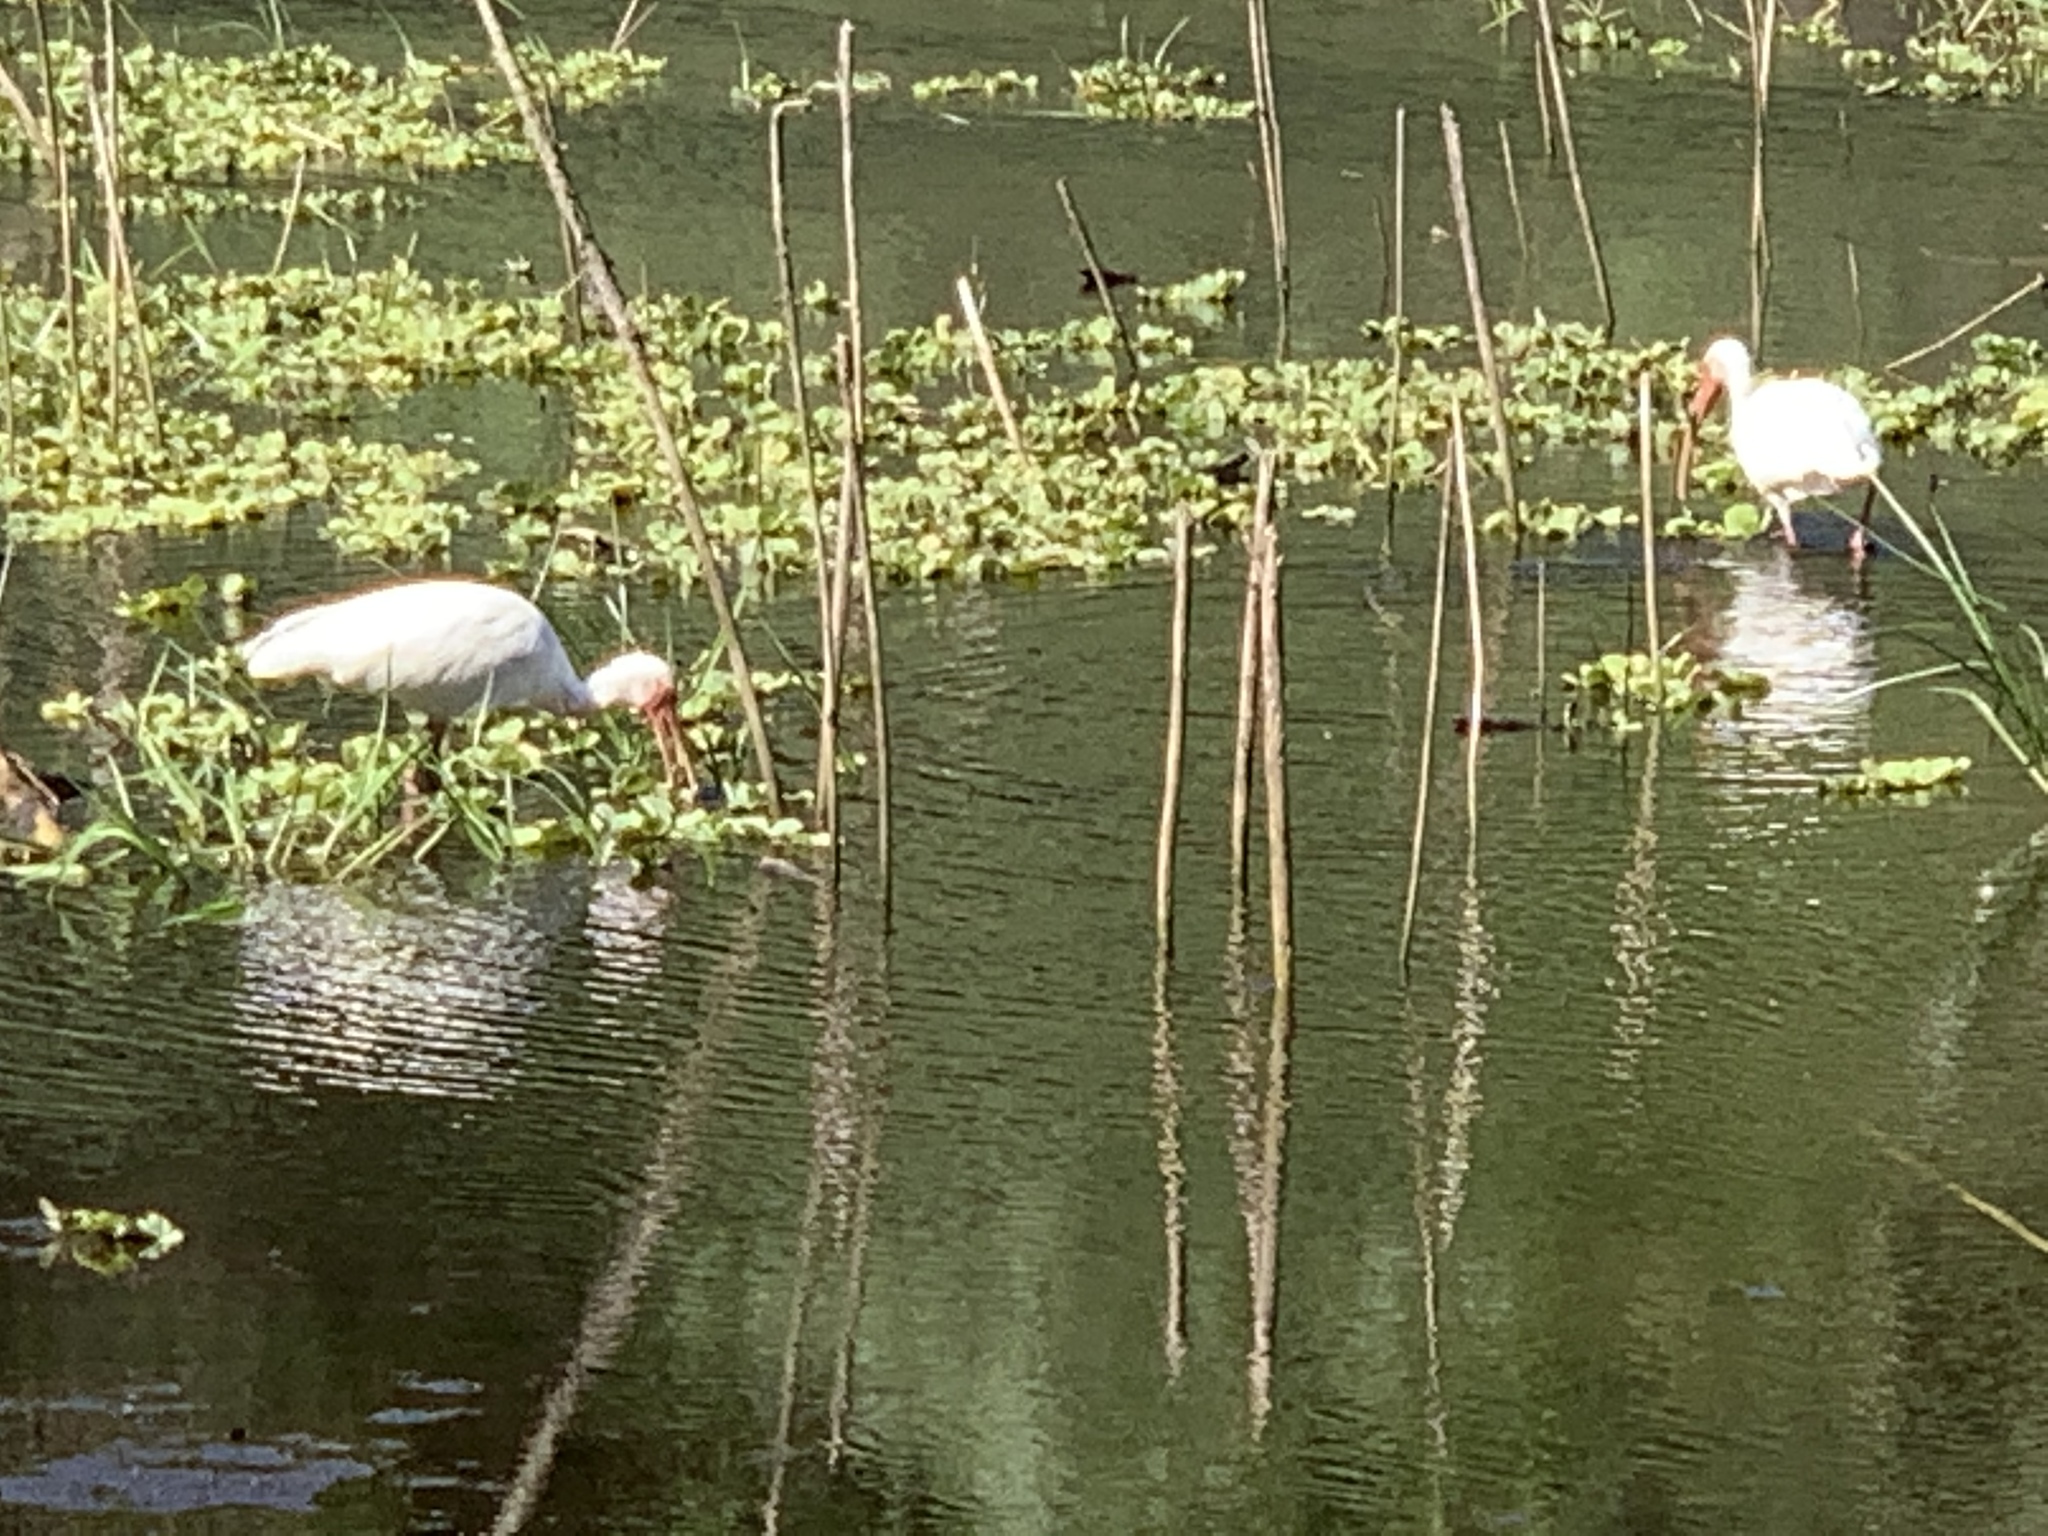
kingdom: Animalia
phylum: Chordata
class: Aves
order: Pelecaniformes
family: Threskiornithidae
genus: Eudocimus
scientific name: Eudocimus albus
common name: White ibis
